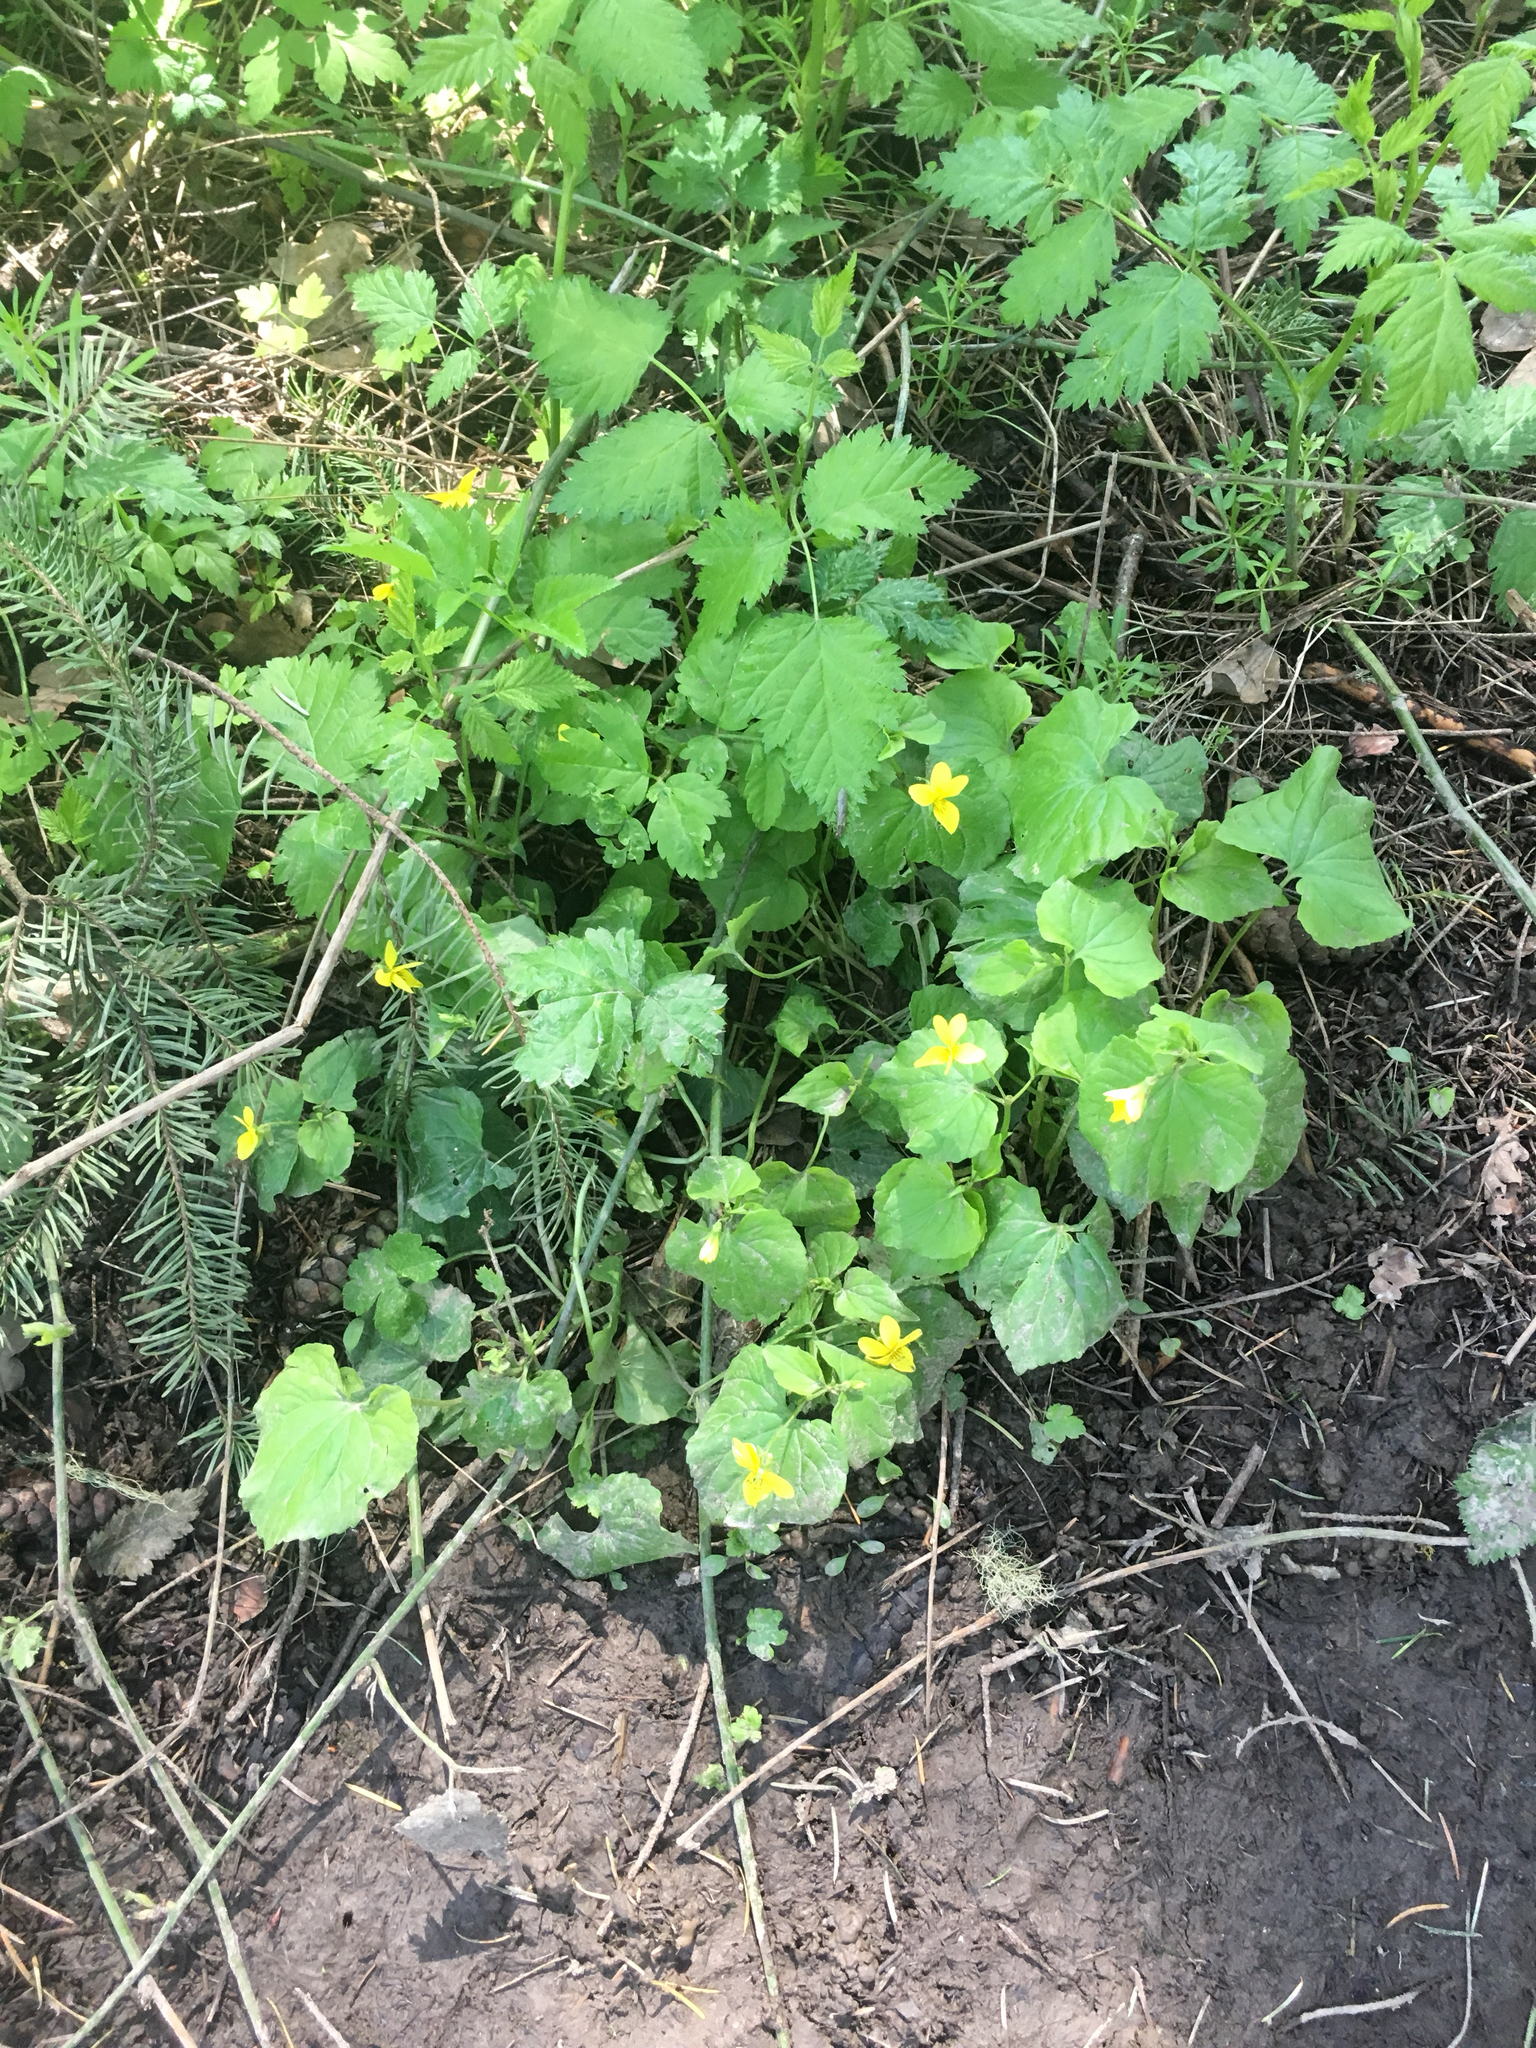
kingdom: Plantae
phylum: Tracheophyta
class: Magnoliopsida
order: Malpighiales
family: Violaceae
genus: Viola
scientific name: Viola glabella
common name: Stream violet
